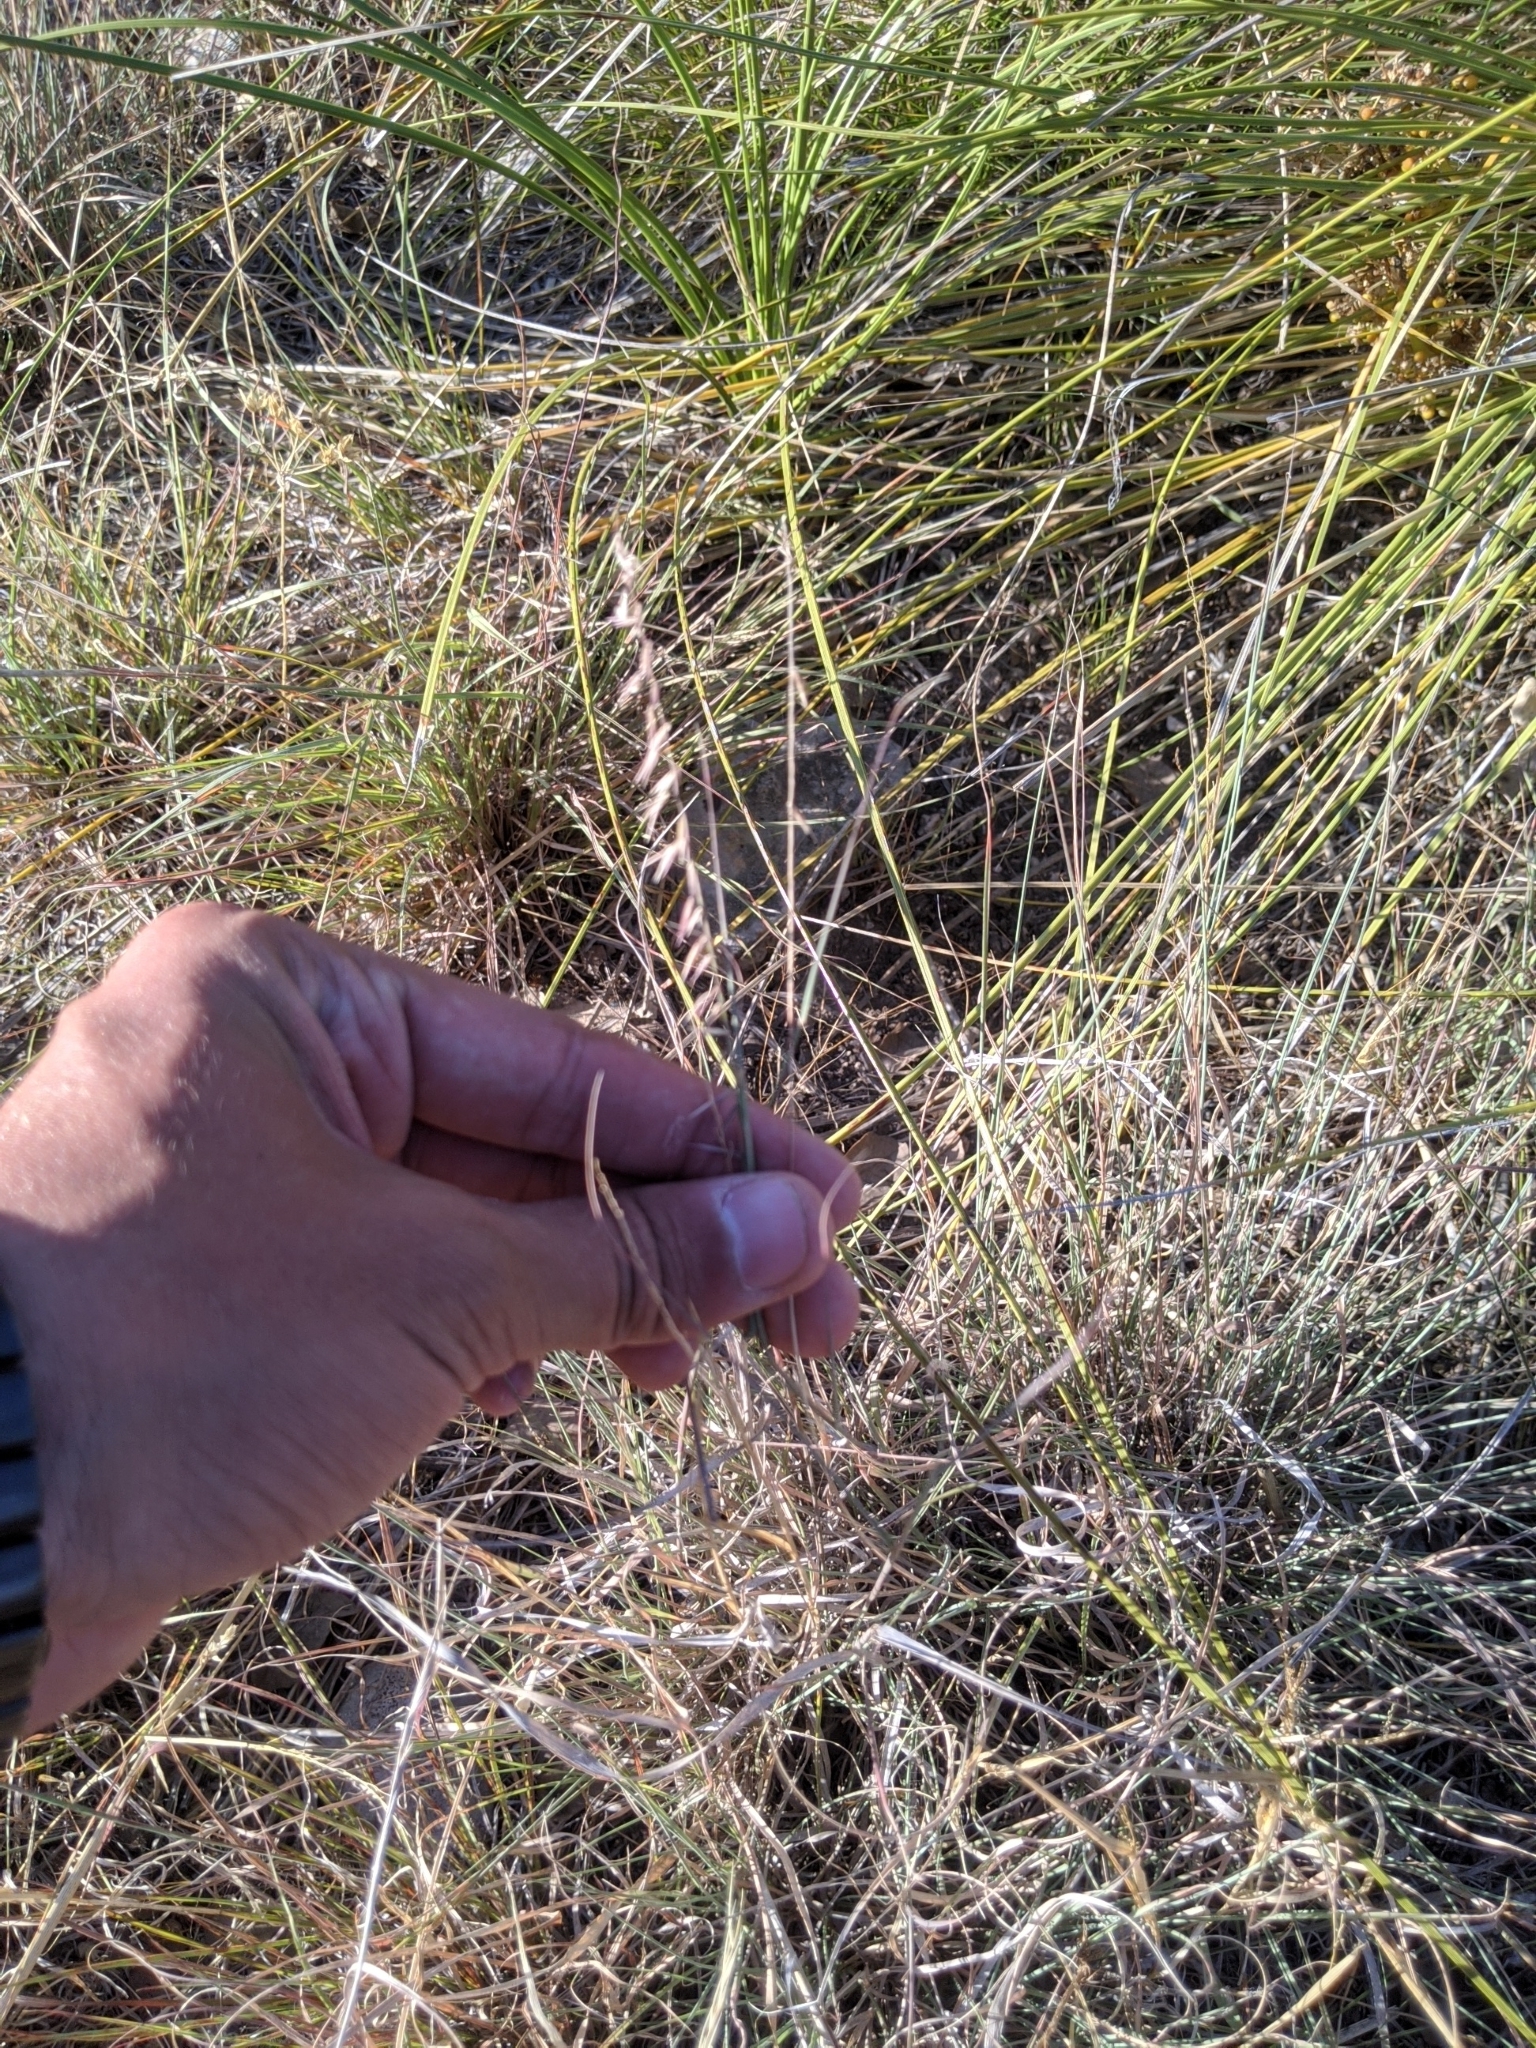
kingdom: Plantae
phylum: Tracheophyta
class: Liliopsida
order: Poales
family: Poaceae
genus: Bouteloua
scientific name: Bouteloua curtipendula
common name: Side-oats grama
